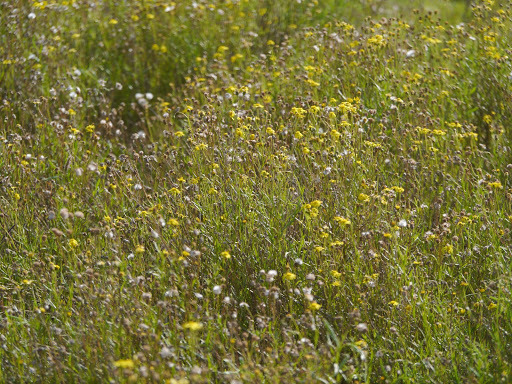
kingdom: Plantae
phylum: Tracheophyta
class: Magnoliopsida
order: Asterales
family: Asteraceae
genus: Senecio
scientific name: Senecio madagascariensis
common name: Madagascar ragwort
